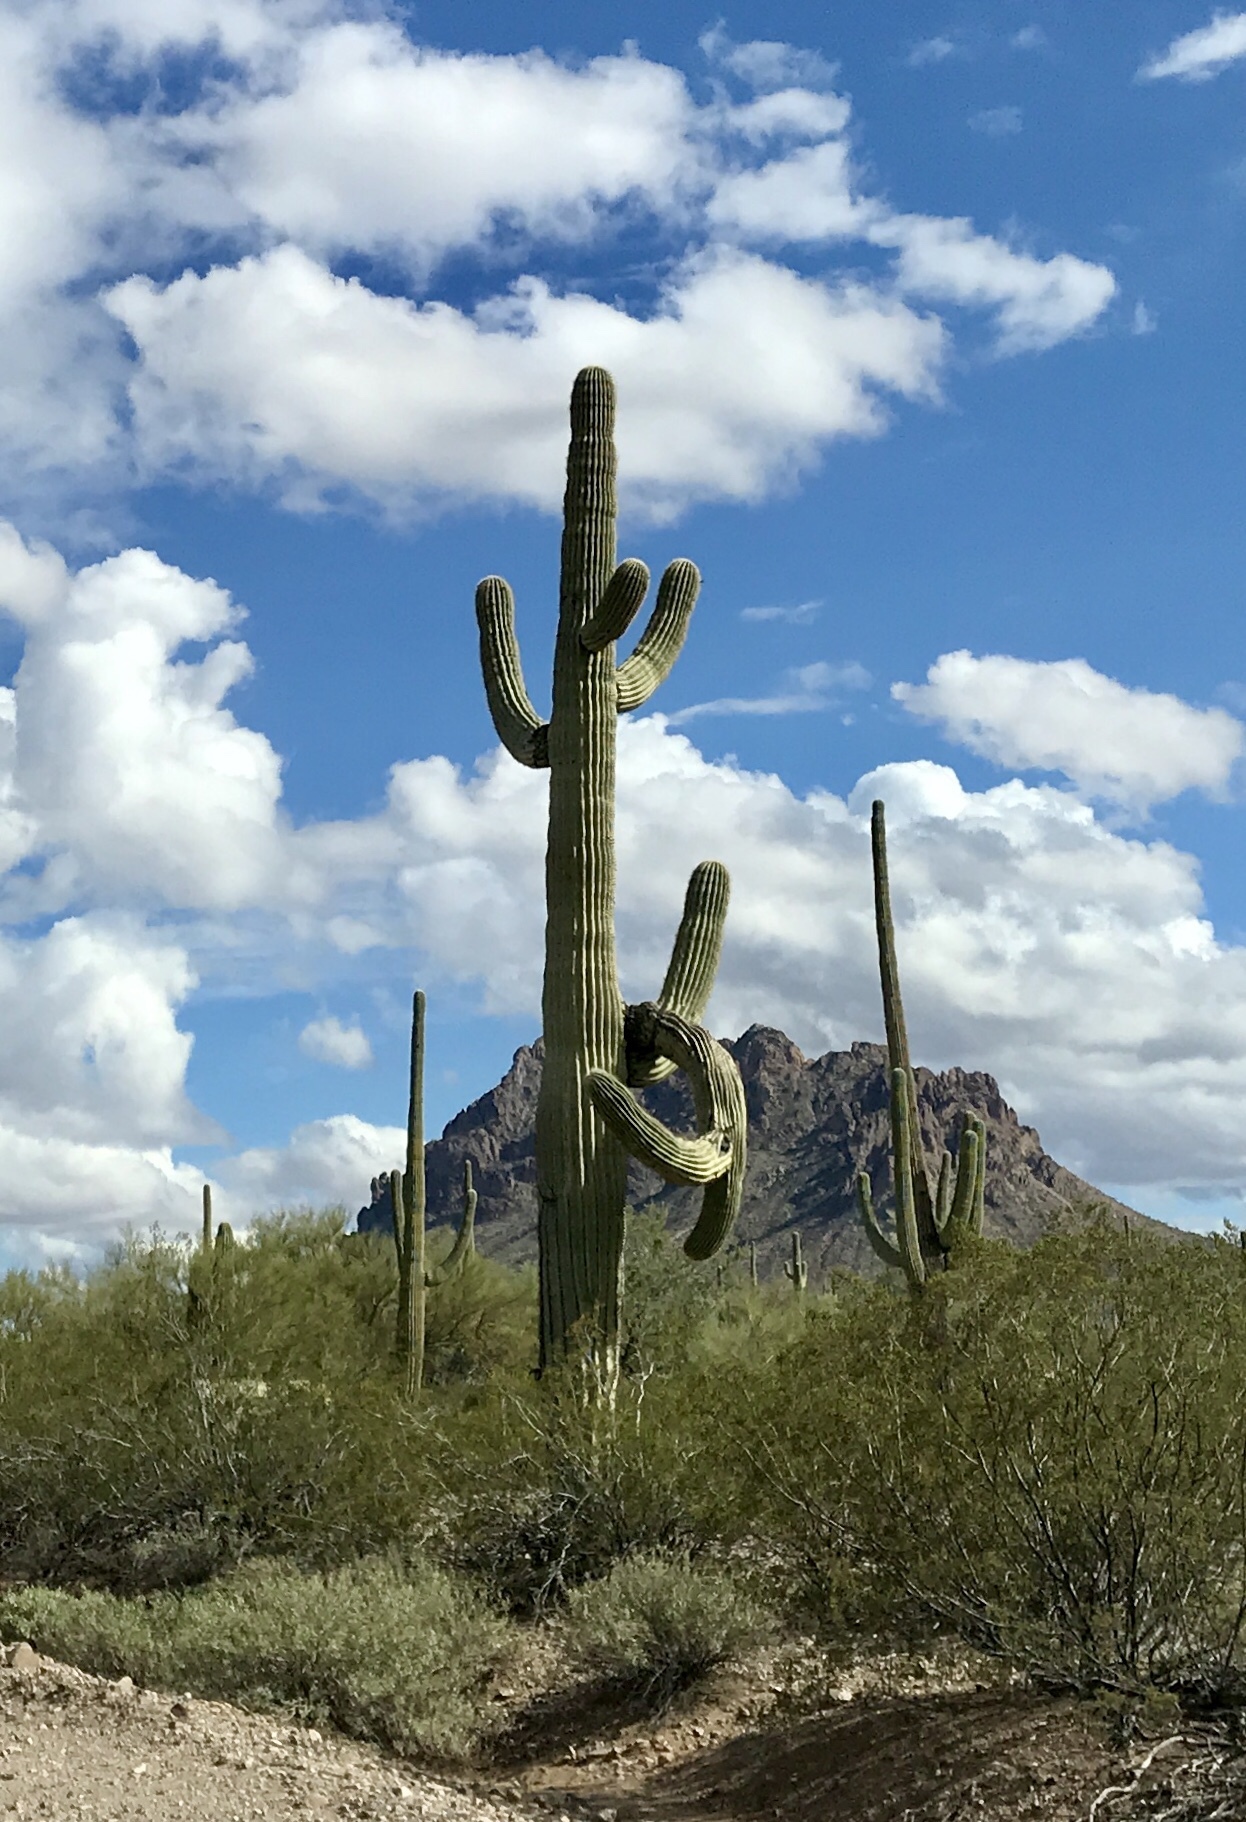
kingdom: Plantae
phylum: Tracheophyta
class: Magnoliopsida
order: Caryophyllales
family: Cactaceae
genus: Carnegiea
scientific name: Carnegiea gigantea
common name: Saguaro
